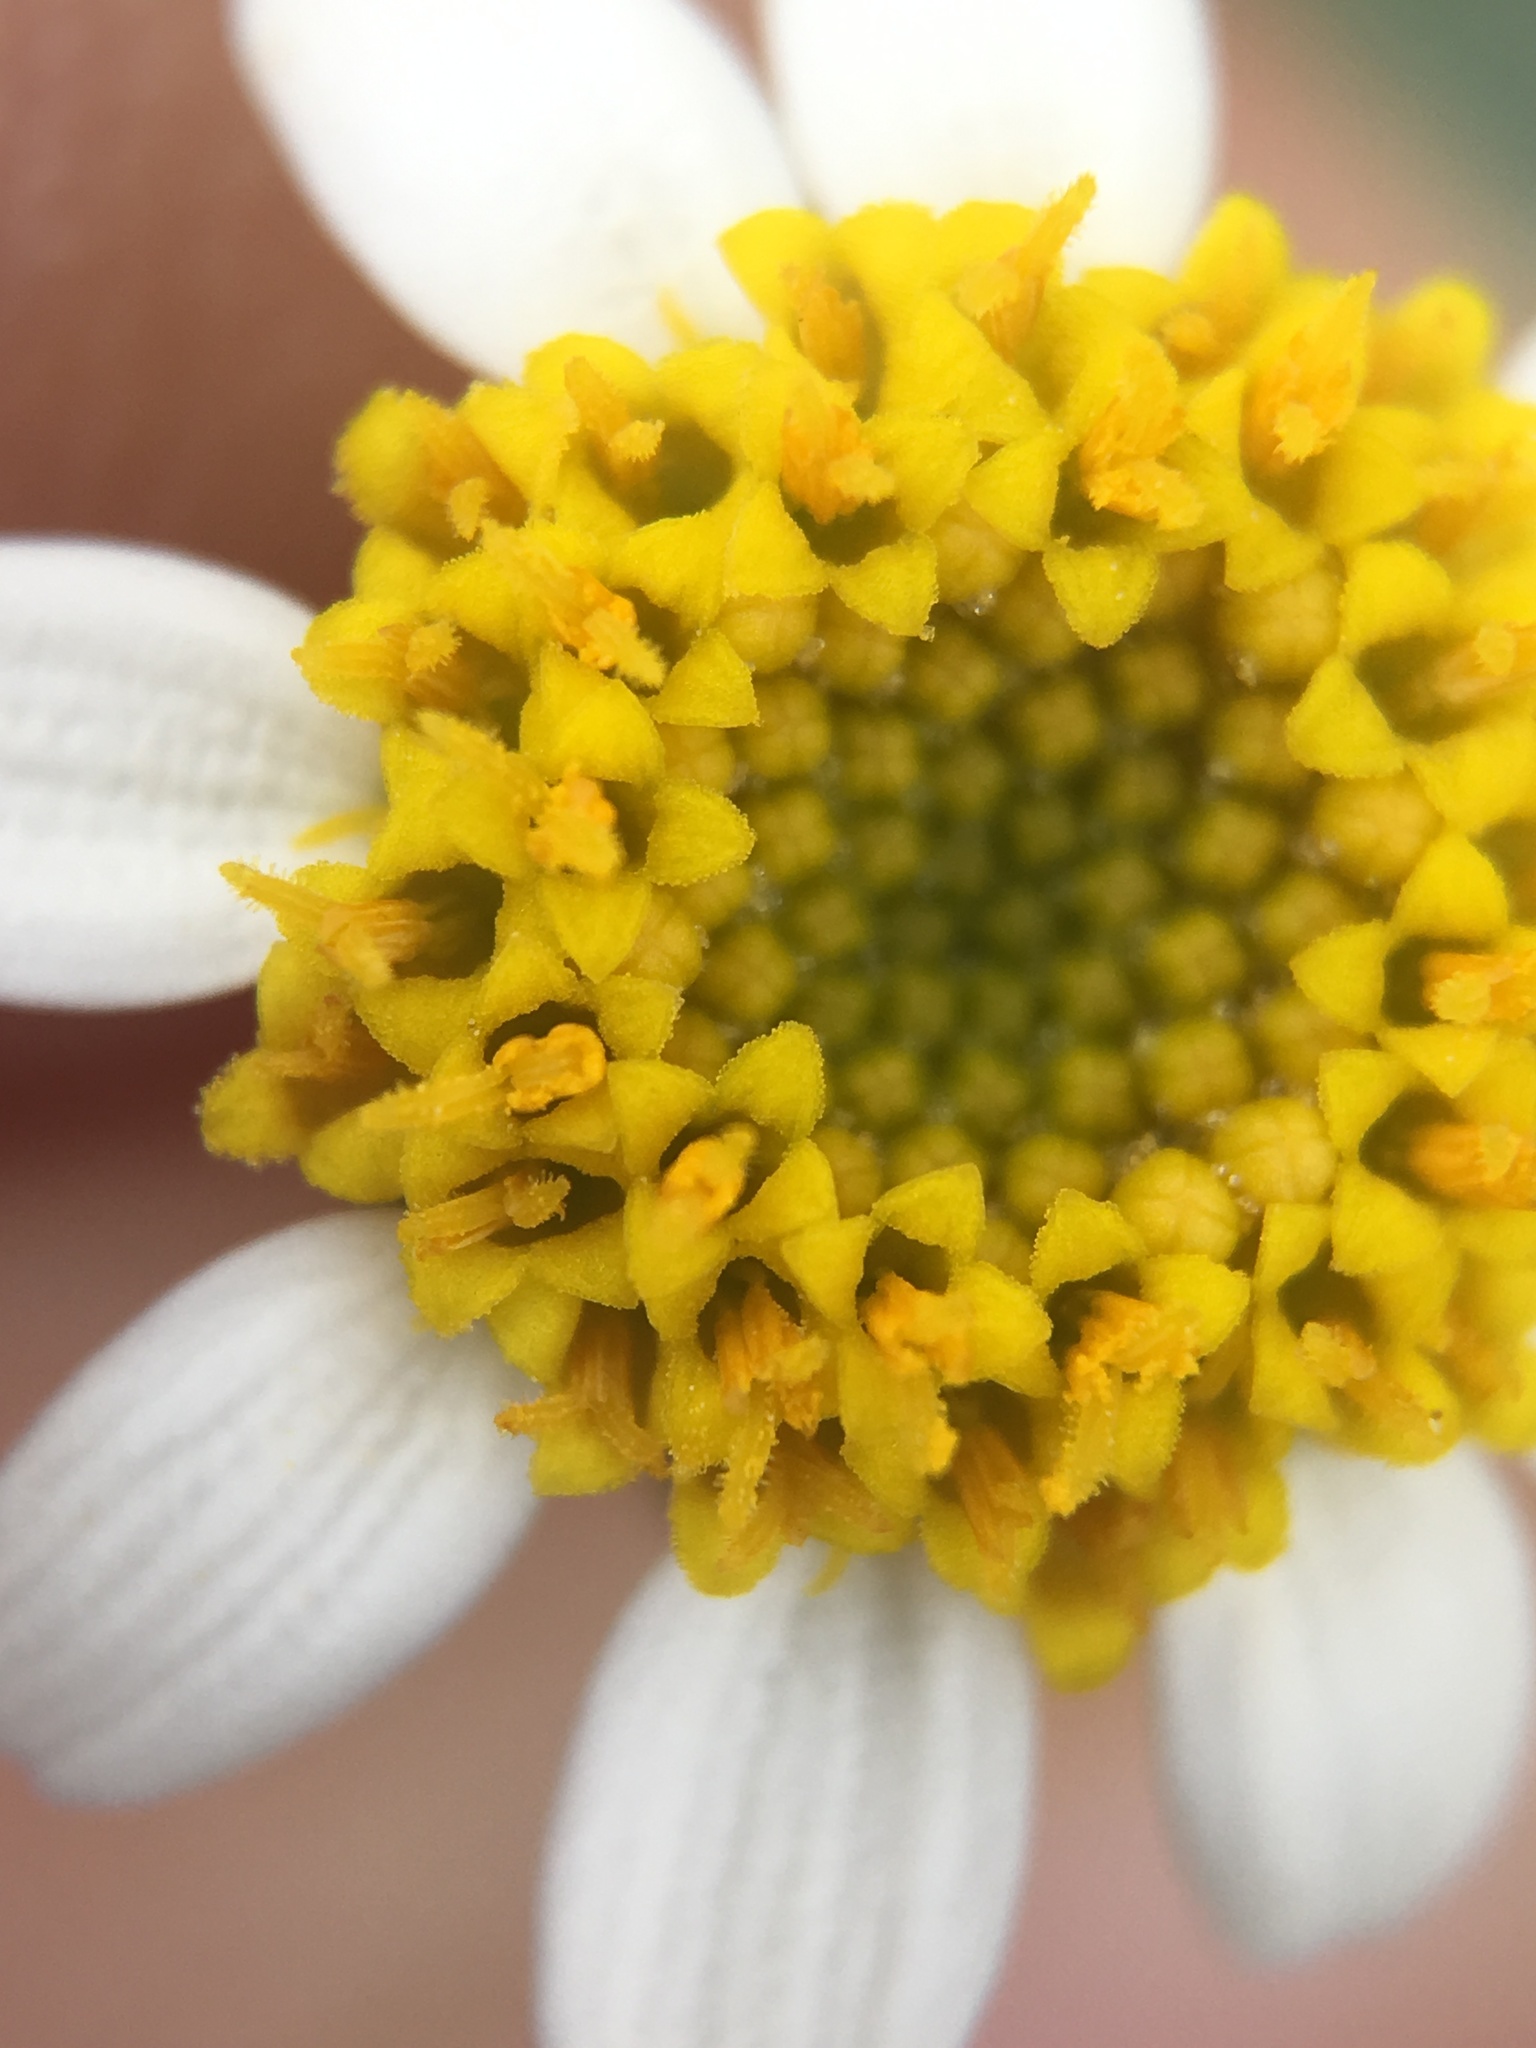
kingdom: Plantae
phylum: Tracheophyta
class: Magnoliopsida
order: Asterales
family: Asteraceae
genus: Laphamia
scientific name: Laphamia emoryi
